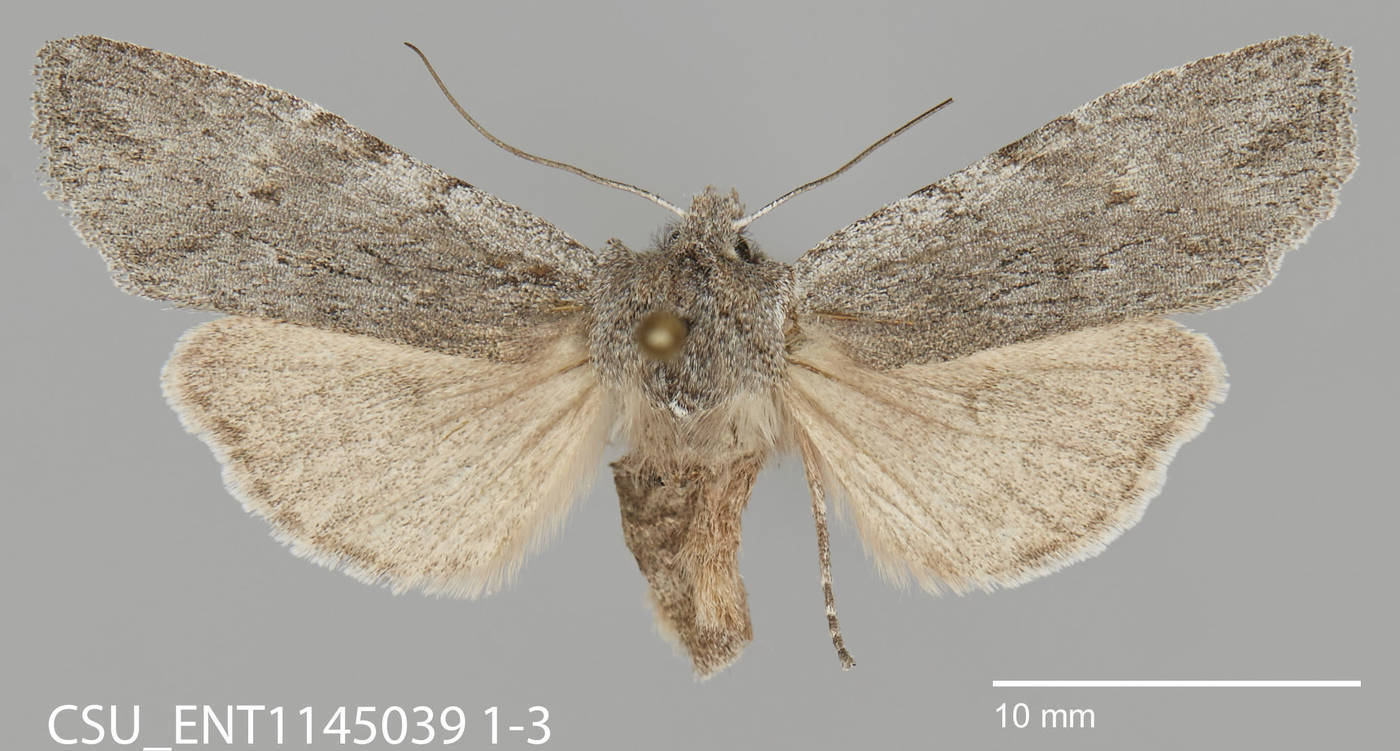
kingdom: Animalia
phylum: Arthropoda
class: Insecta
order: Lepidoptera
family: Noctuidae
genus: Lithophane
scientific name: Lithophane itata
